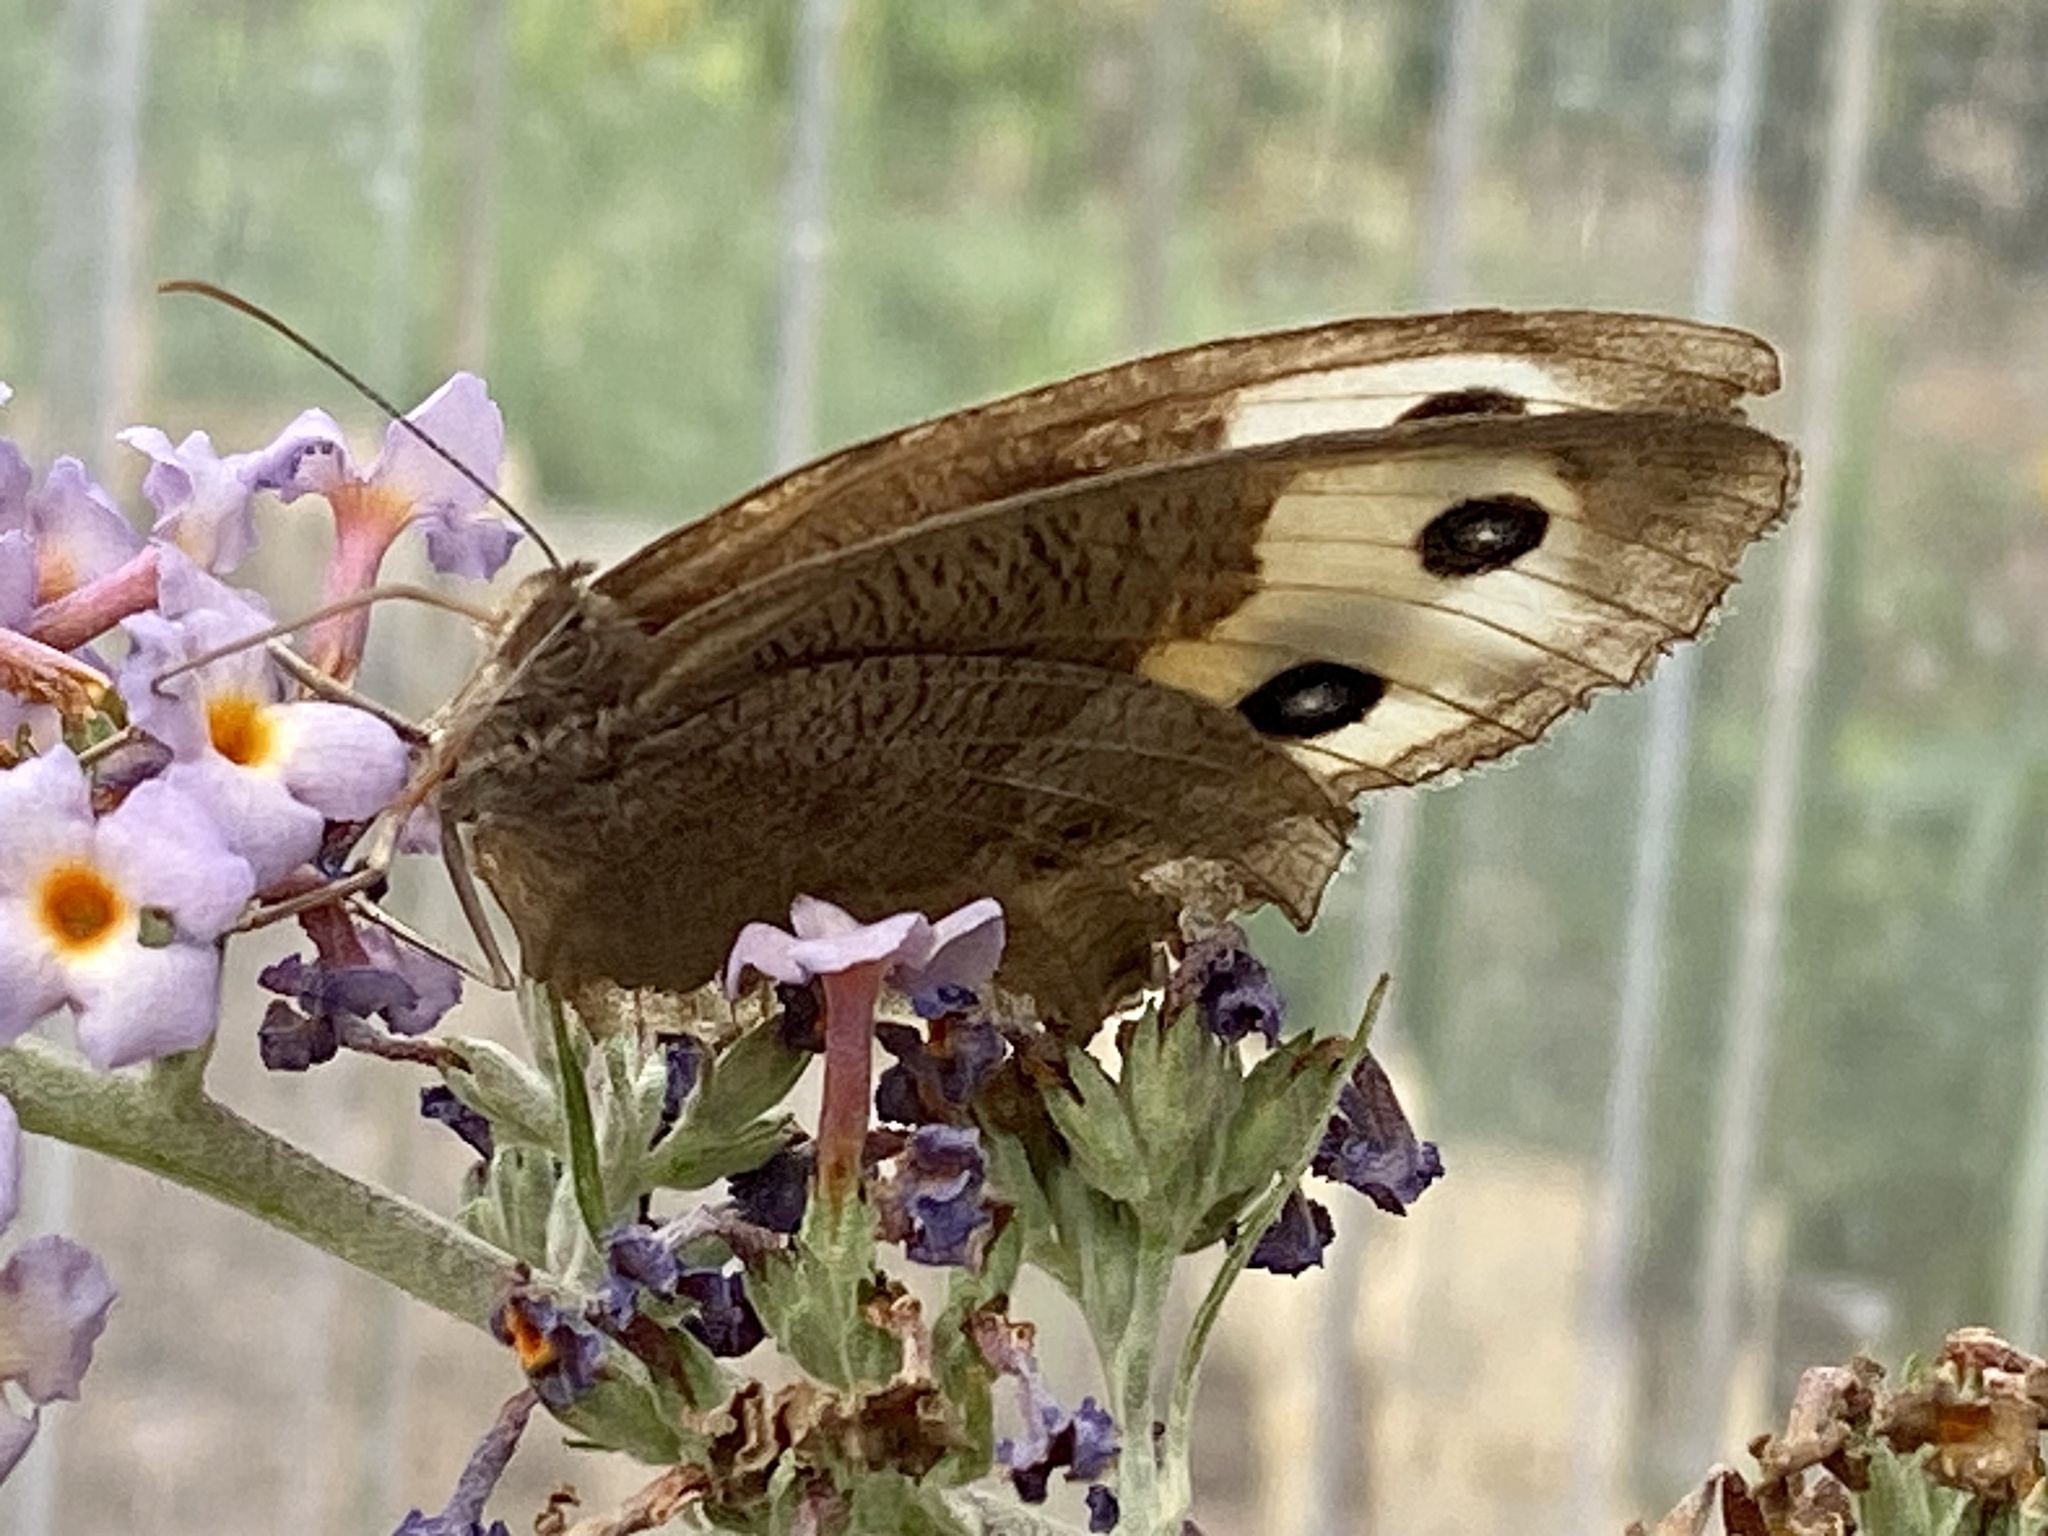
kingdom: Animalia
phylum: Arthropoda
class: Insecta
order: Lepidoptera
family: Nymphalidae
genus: Cercyonis
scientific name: Cercyonis pegala
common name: Common wood-nymph
